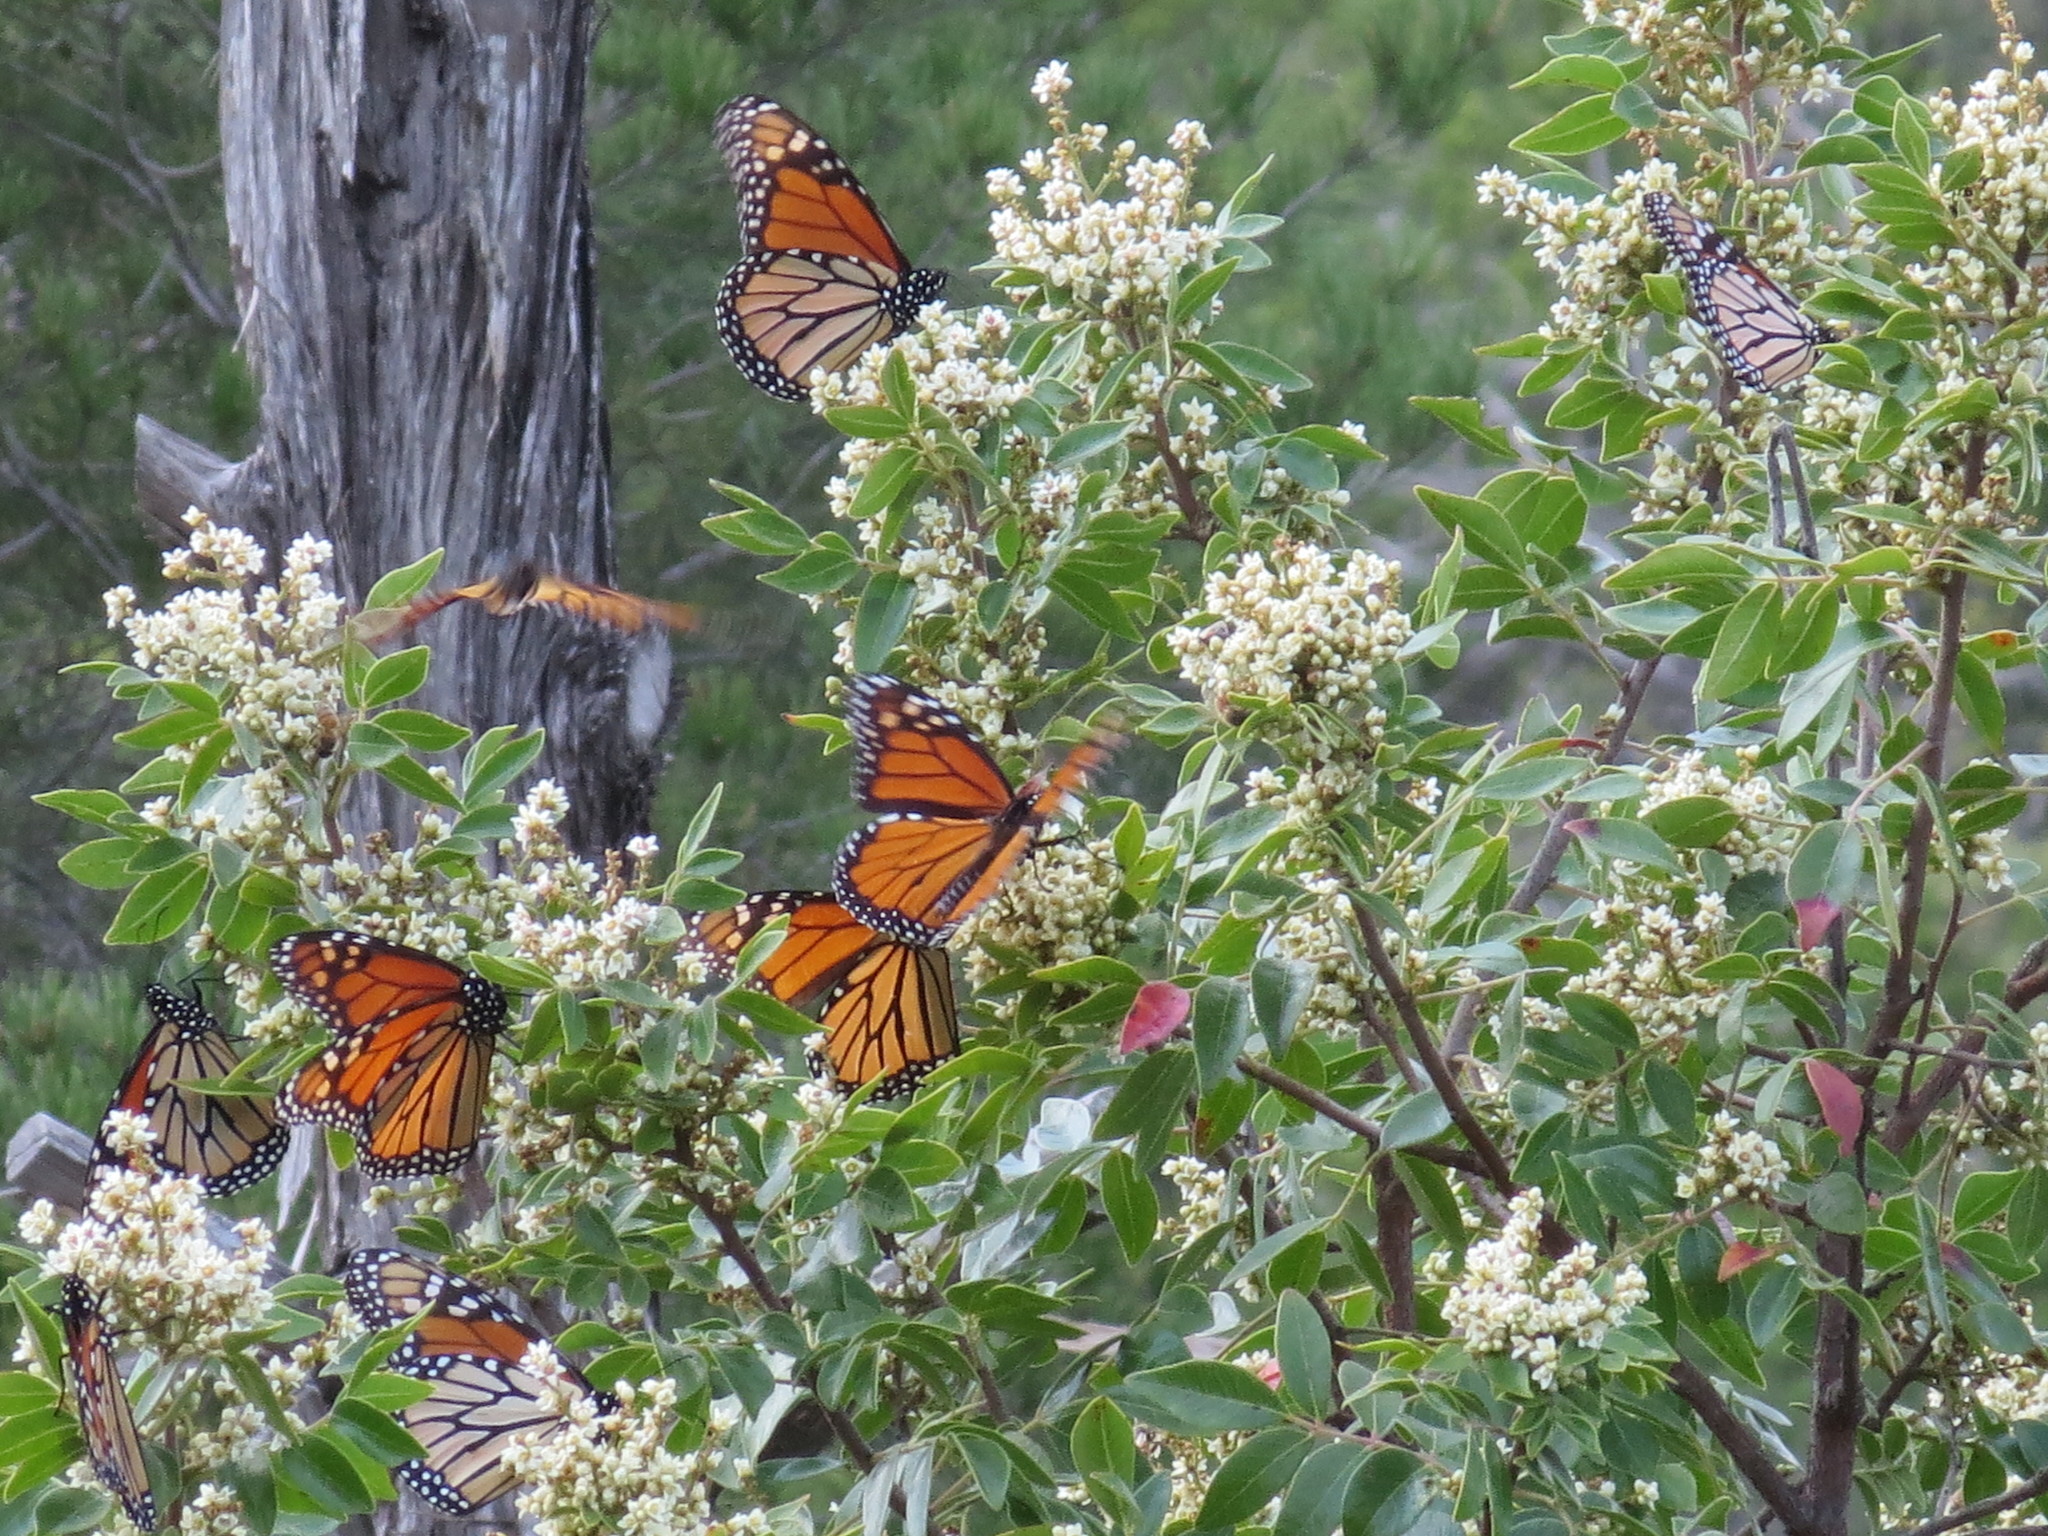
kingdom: Animalia
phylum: Arthropoda
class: Insecta
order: Lepidoptera
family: Nymphalidae
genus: Danaus
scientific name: Danaus plexippus
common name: Monarch
